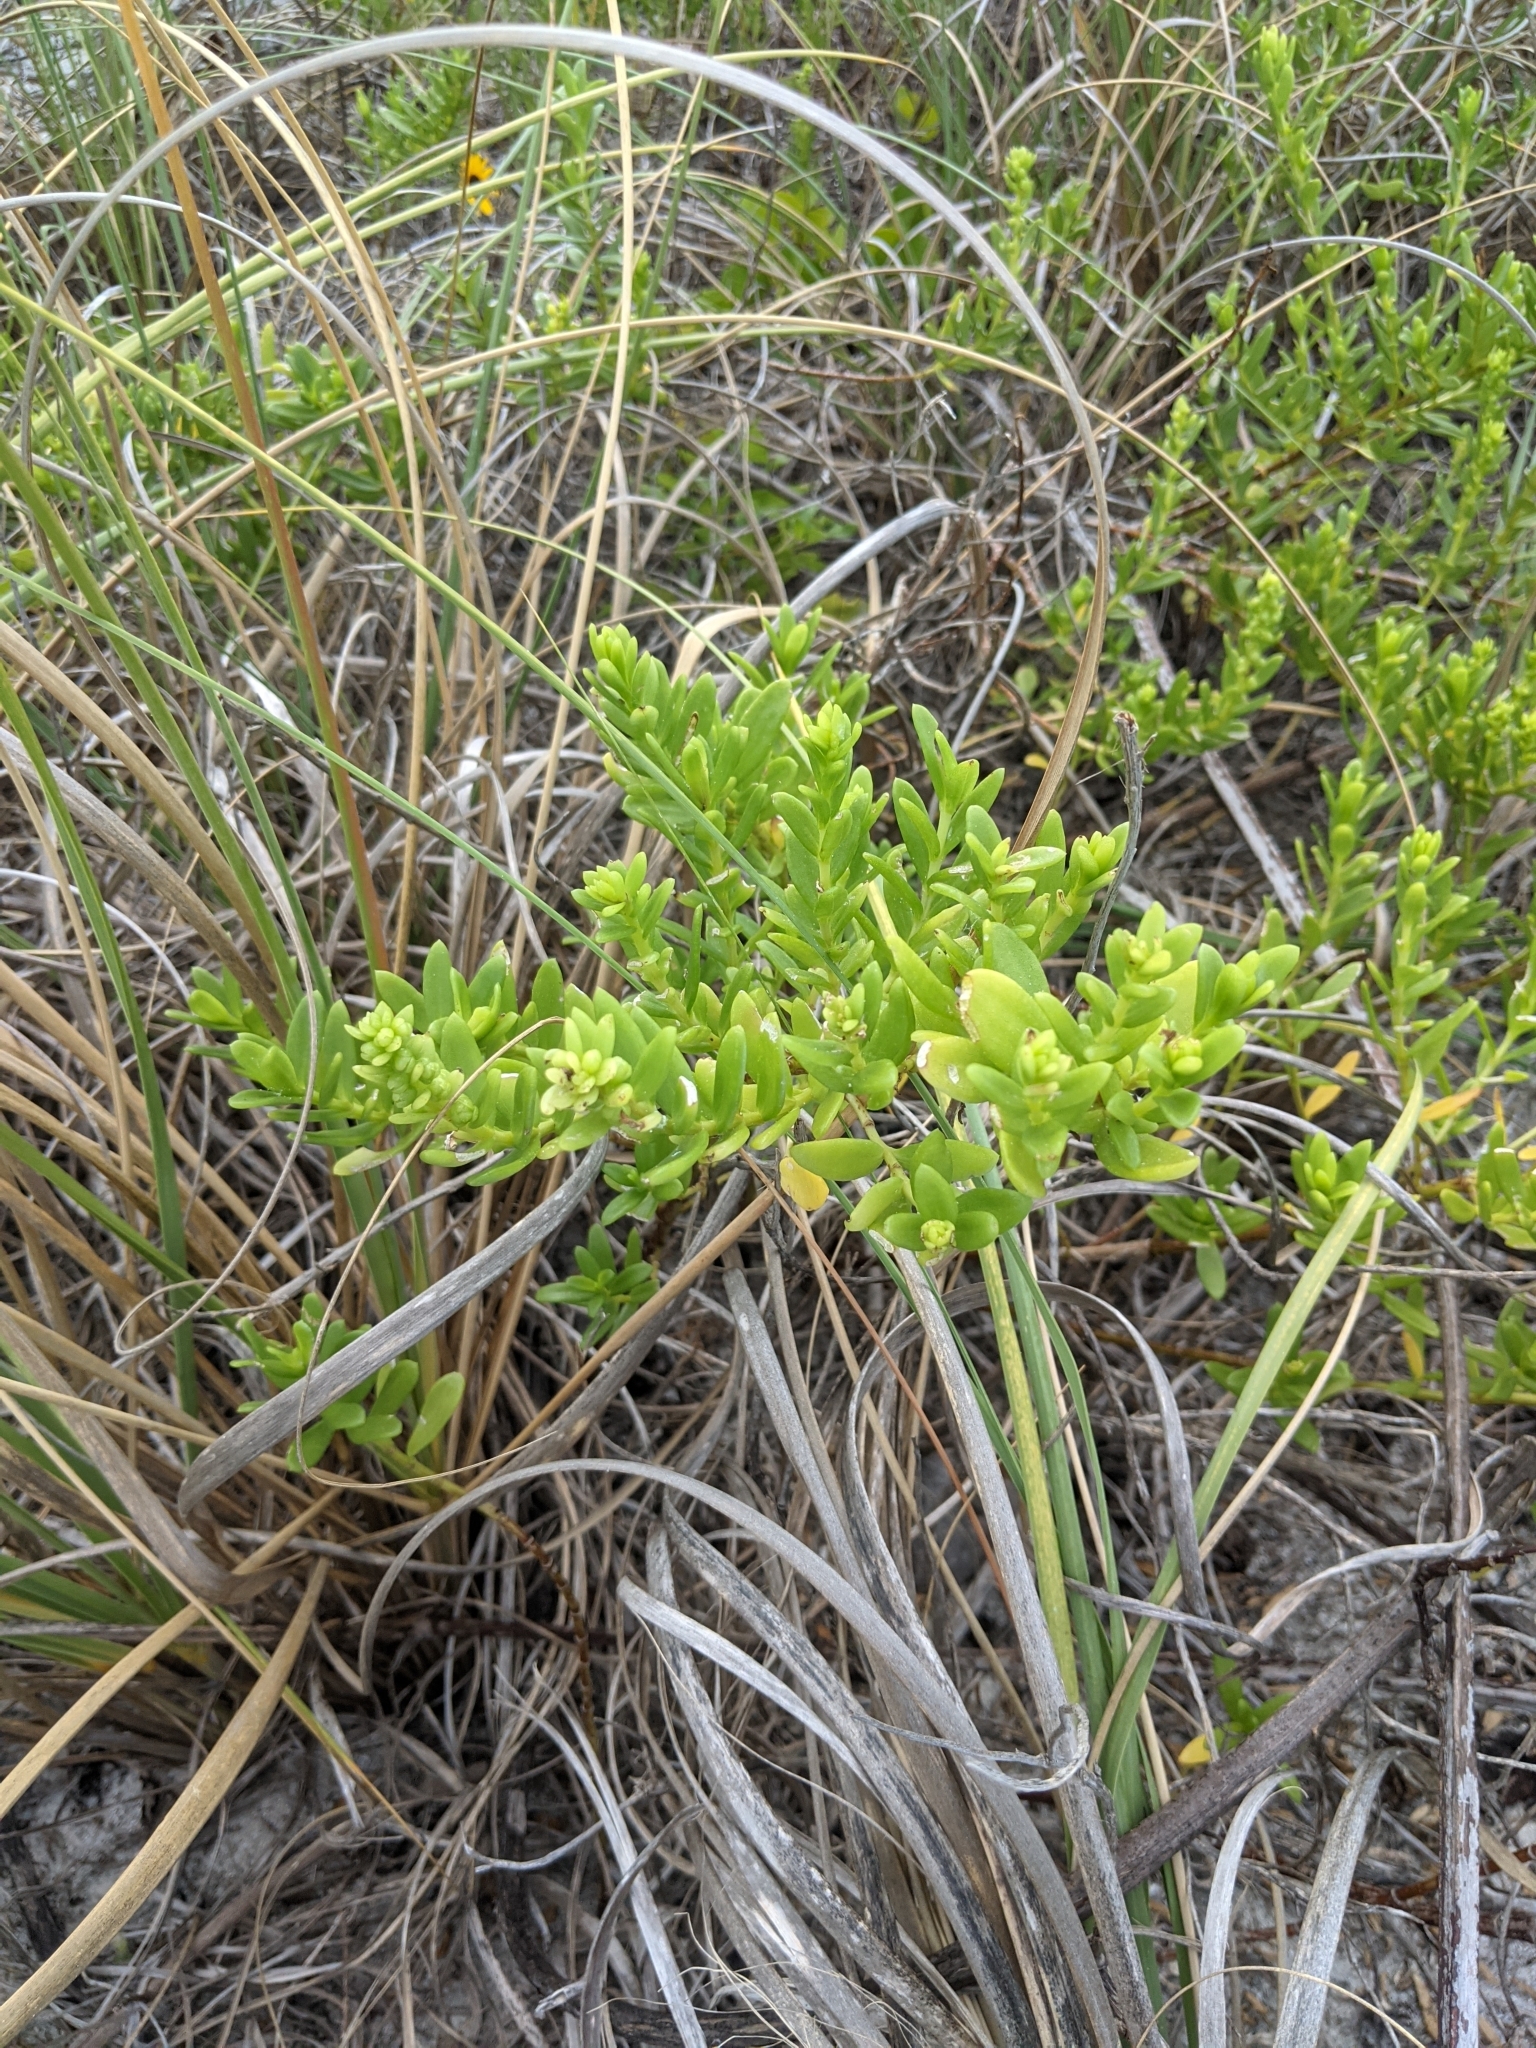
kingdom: Plantae
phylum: Tracheophyta
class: Magnoliopsida
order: Asterales
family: Asteraceae
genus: Iva
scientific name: Iva imbricata
